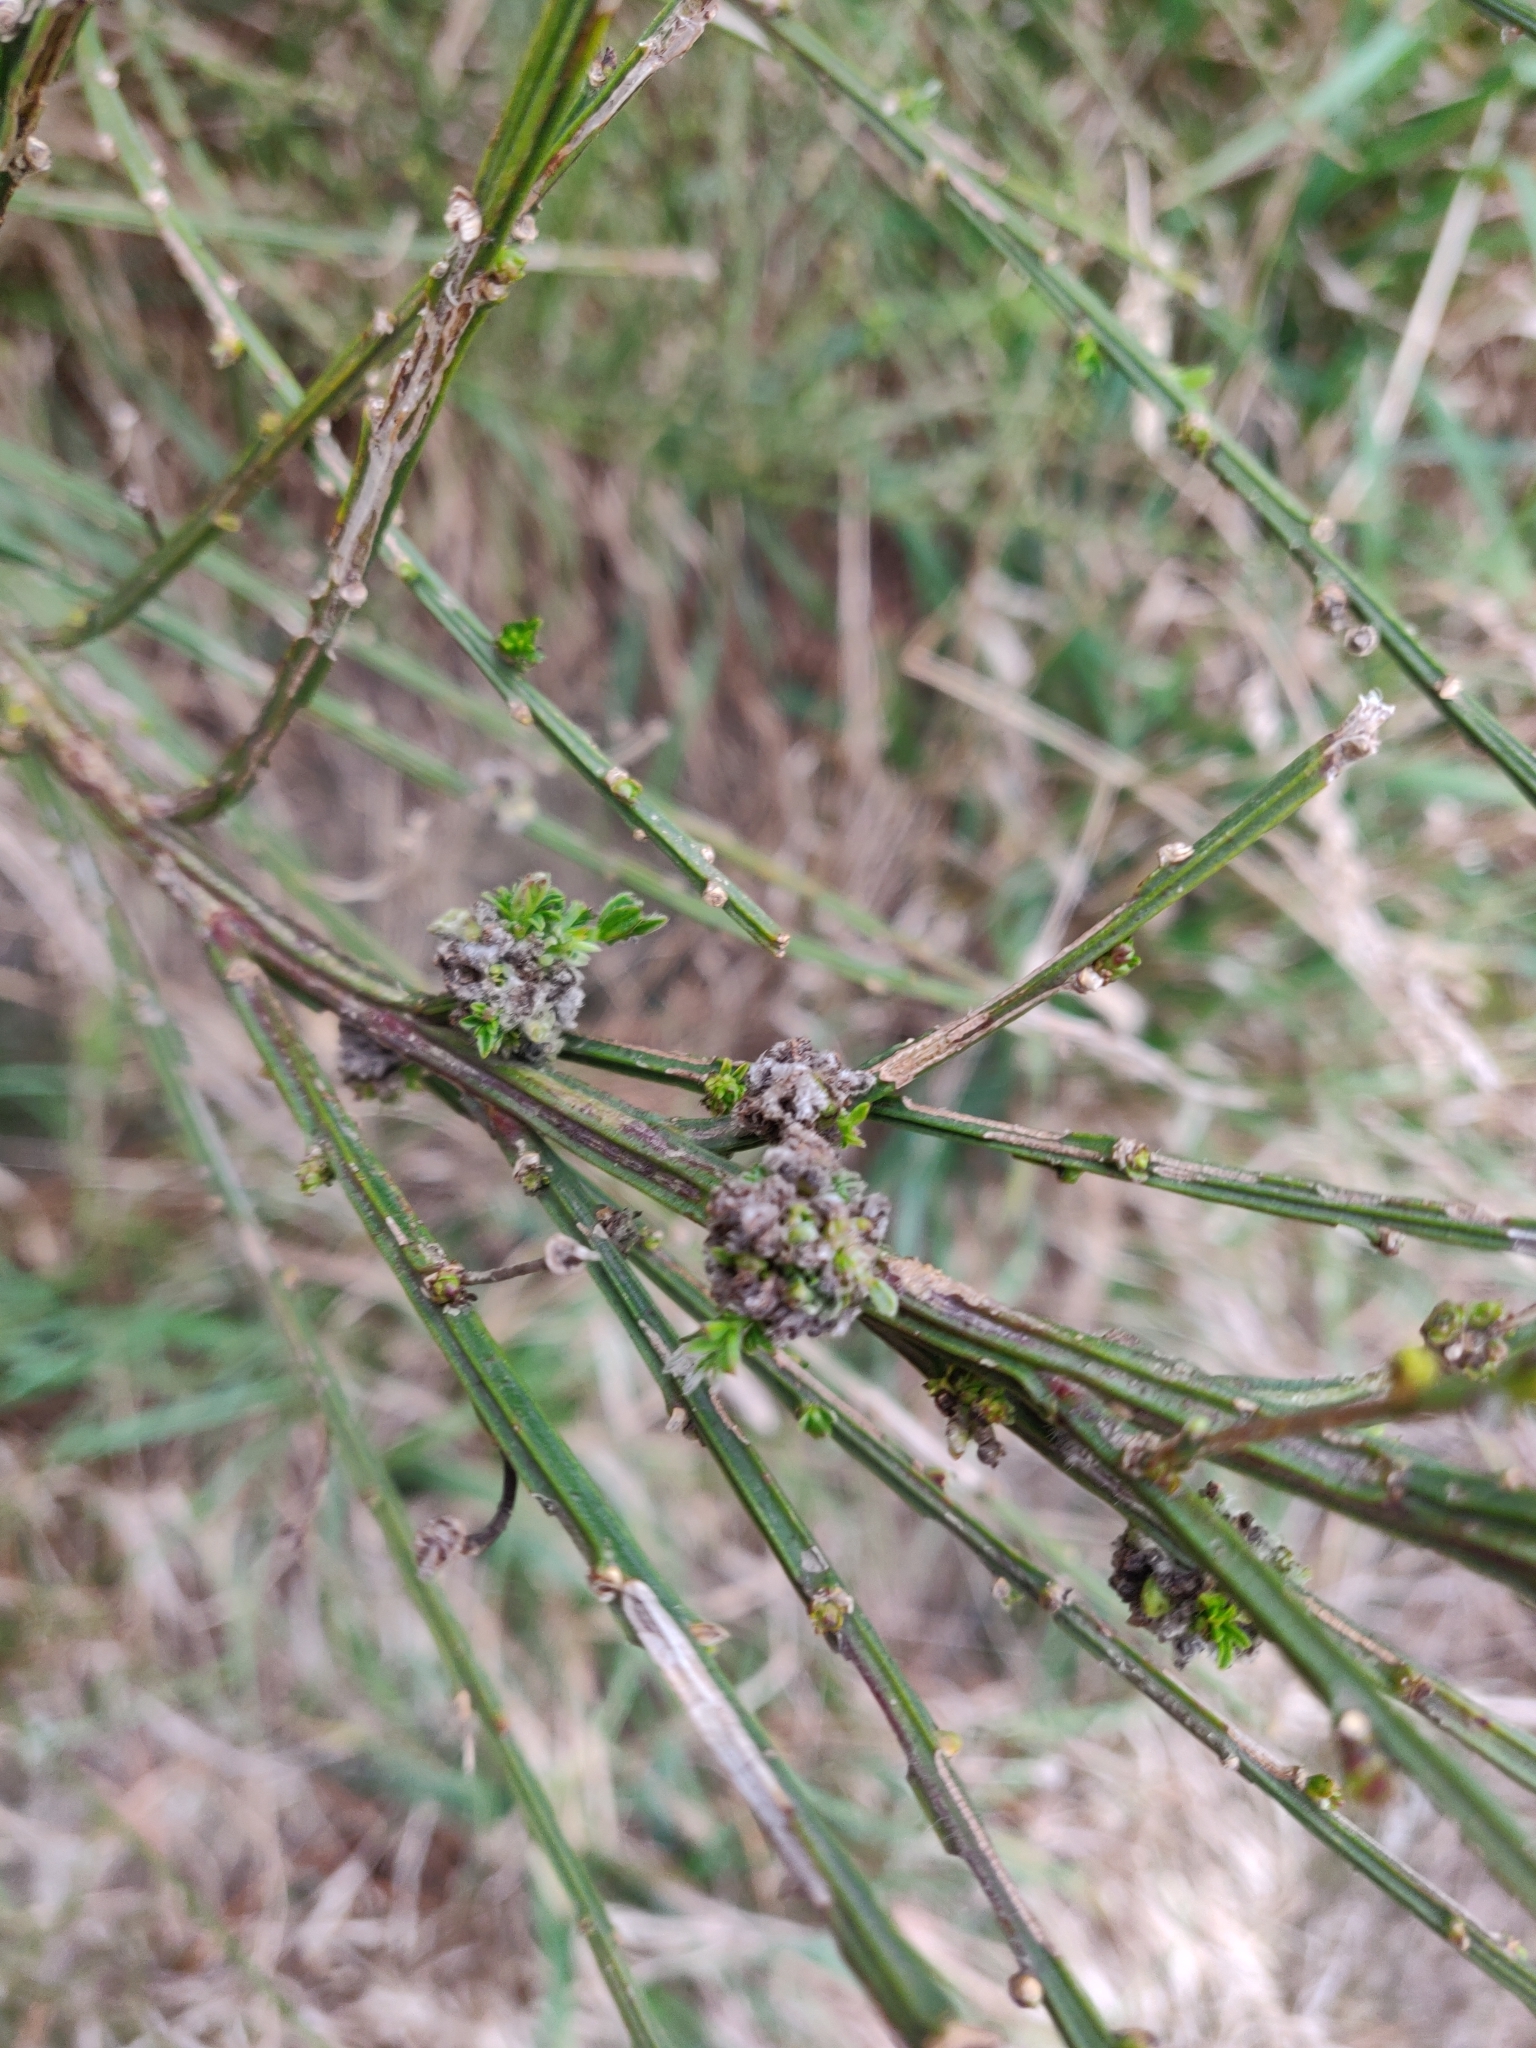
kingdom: Animalia
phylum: Arthropoda
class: Arachnida
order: Trombidiformes
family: Eriophyidae
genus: Aceria
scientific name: Aceria genistae
